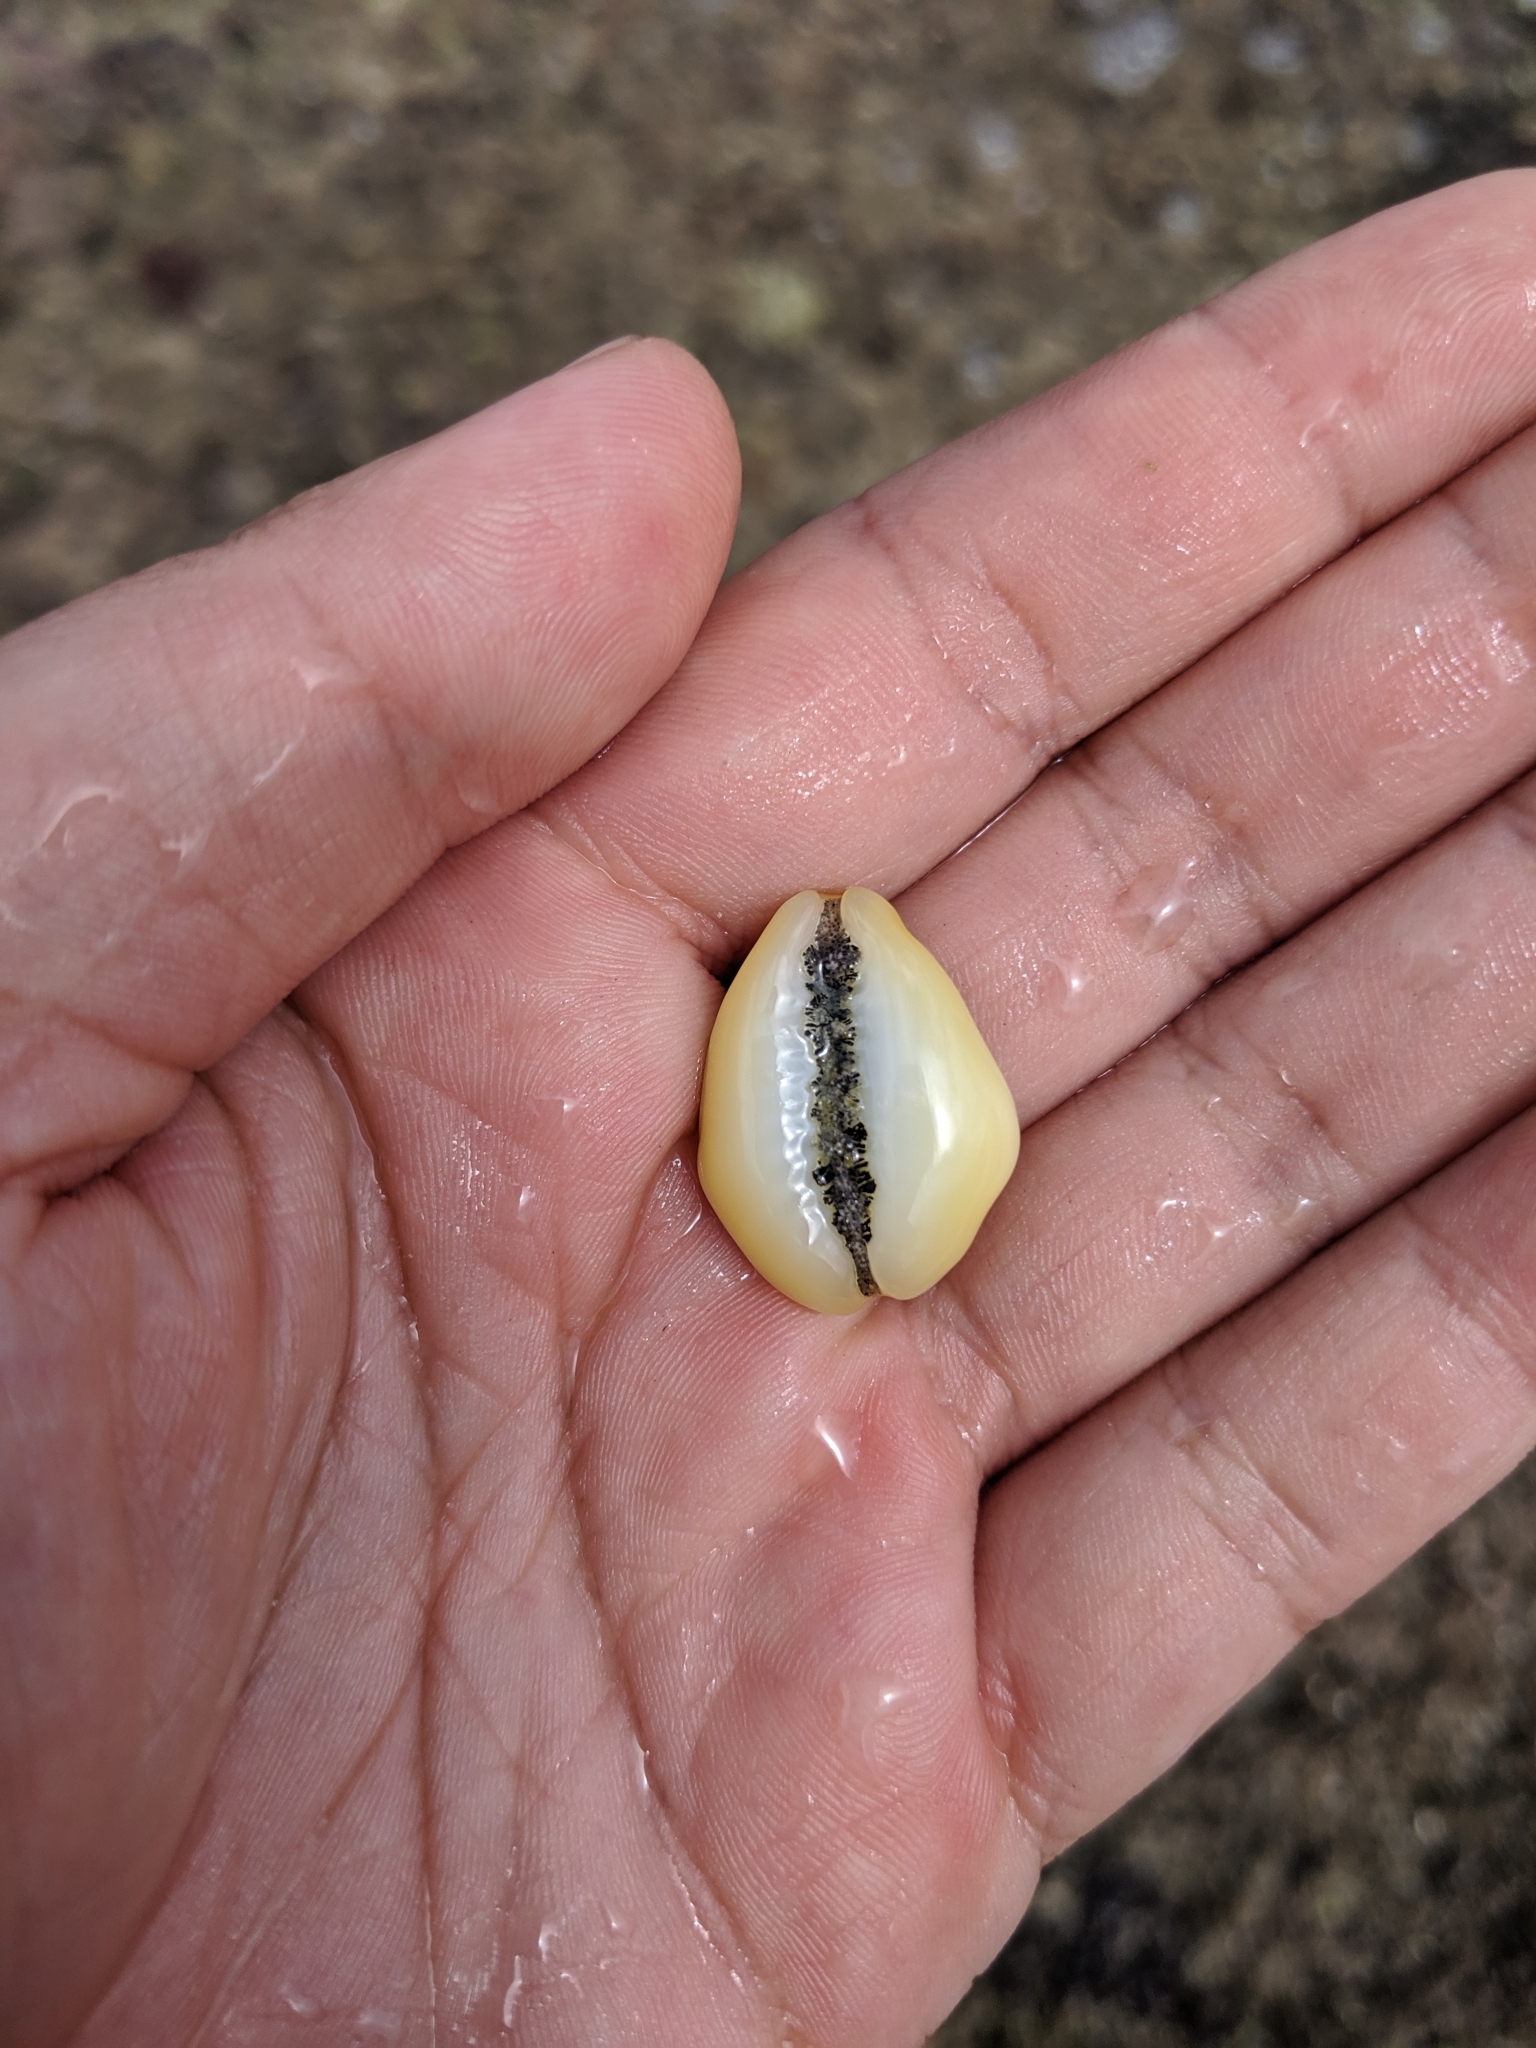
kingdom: Animalia
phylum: Mollusca
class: Gastropoda
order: Littorinimorpha
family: Cypraeidae
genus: Monetaria
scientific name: Monetaria moneta
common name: Money cowrie
